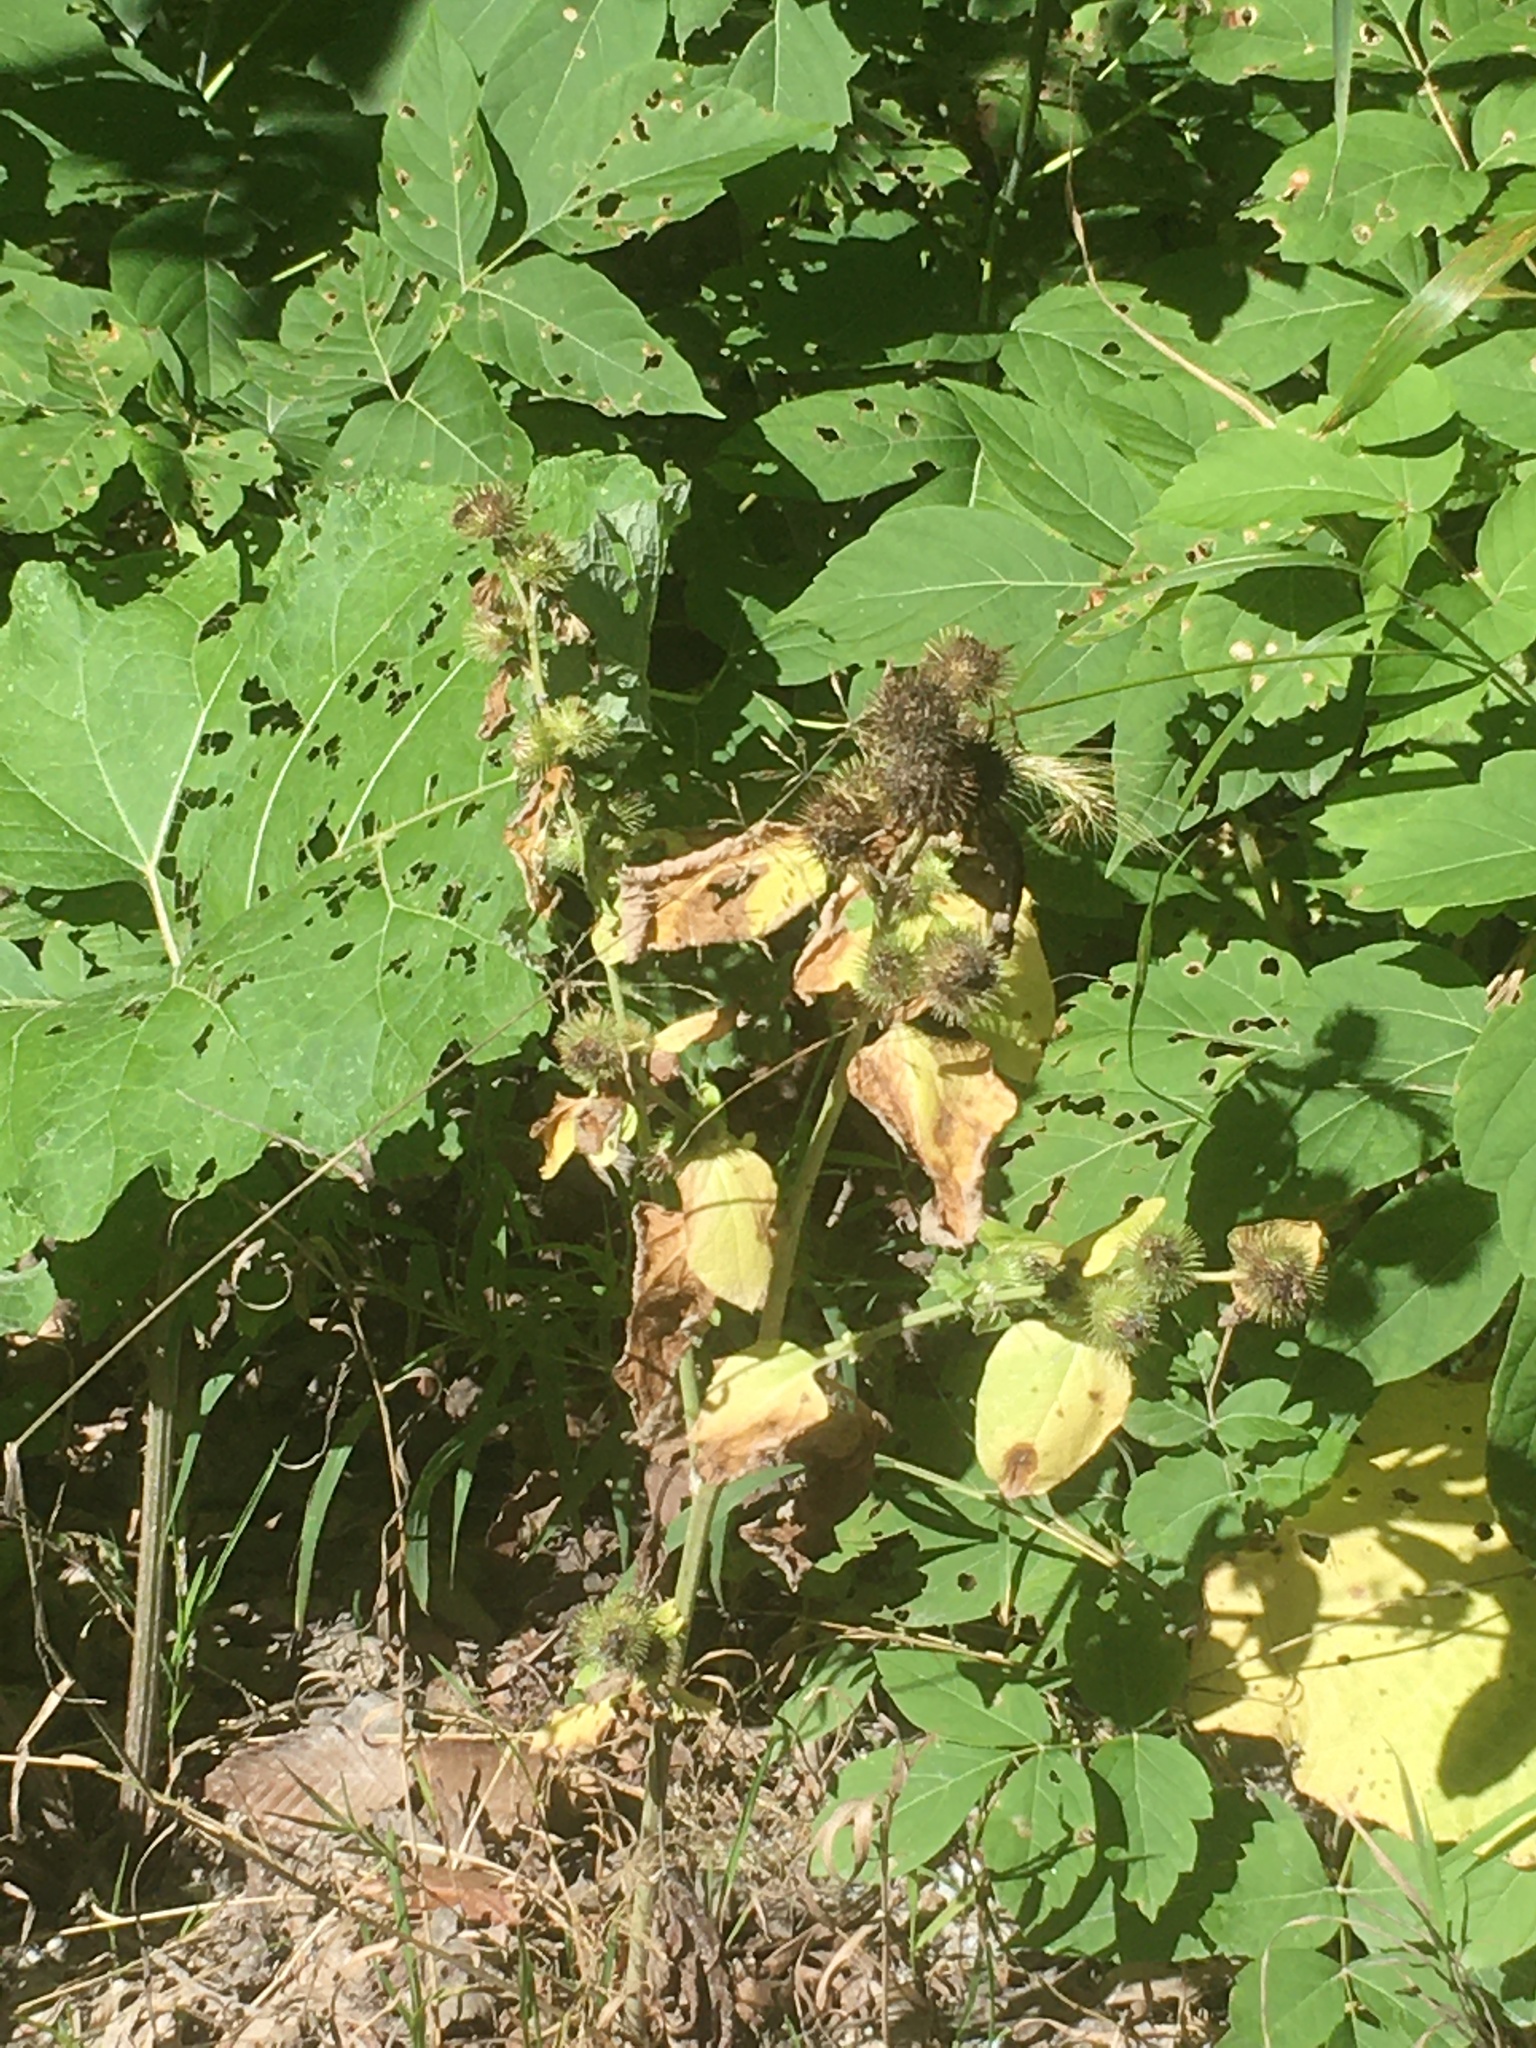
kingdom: Plantae
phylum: Tracheophyta
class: Magnoliopsida
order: Asterales
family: Asteraceae
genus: Arctium
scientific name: Arctium minus
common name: Lesser burdock
